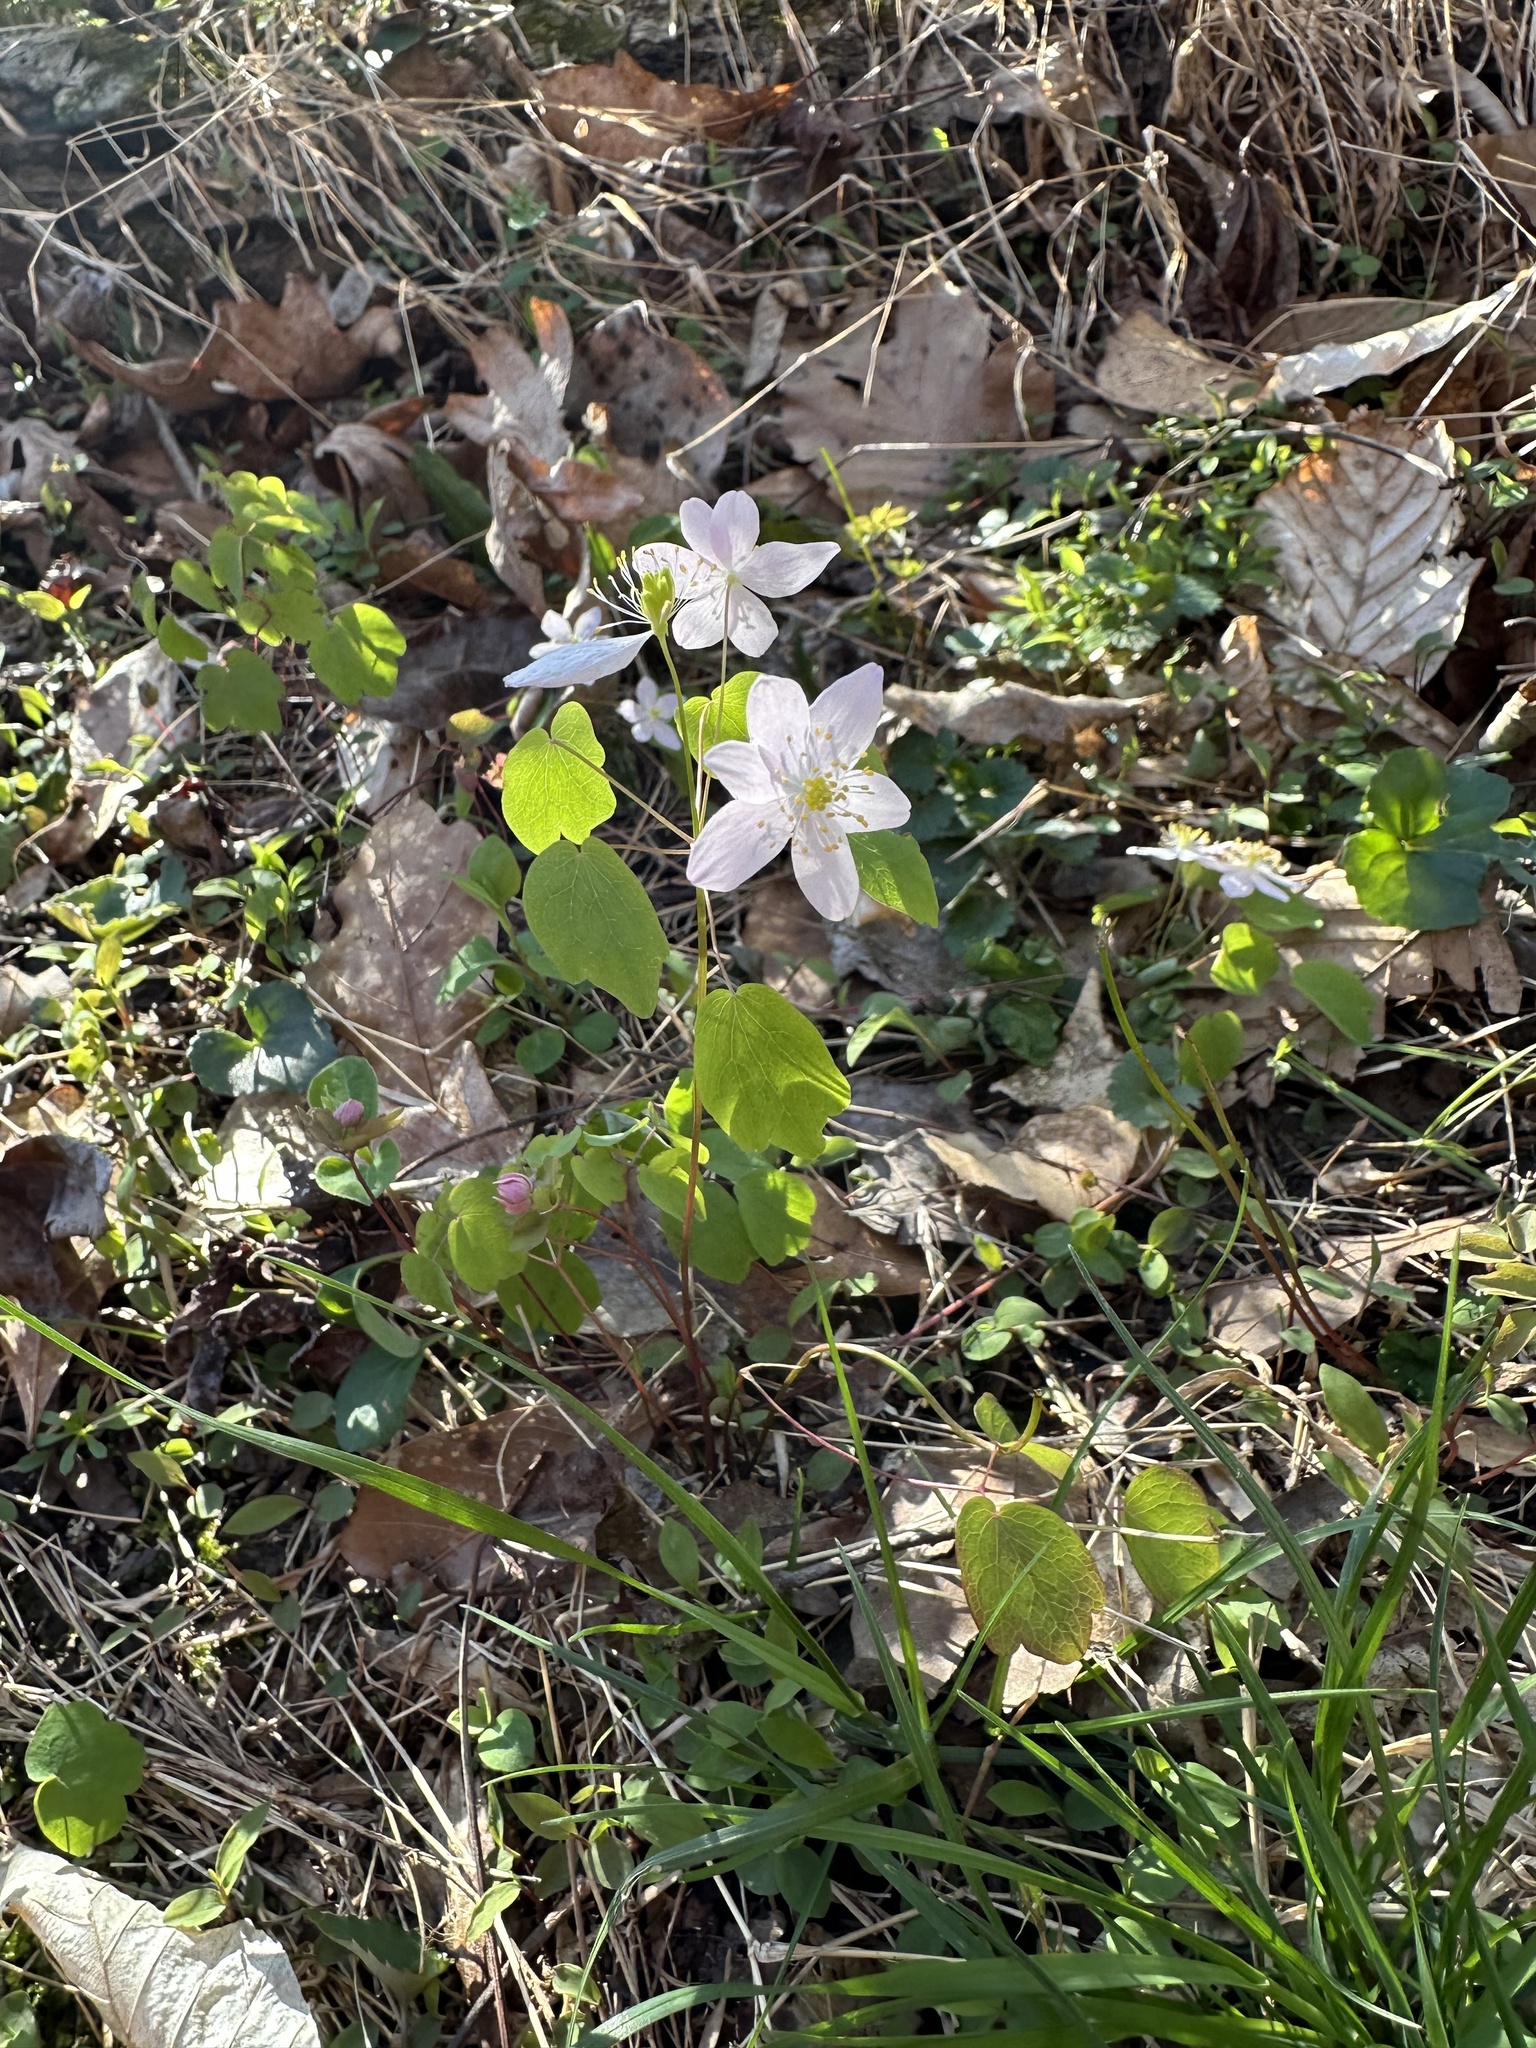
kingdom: Plantae
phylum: Tracheophyta
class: Magnoliopsida
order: Ranunculales
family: Ranunculaceae
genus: Thalictrum
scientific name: Thalictrum thalictroides
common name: Rue-anemone
